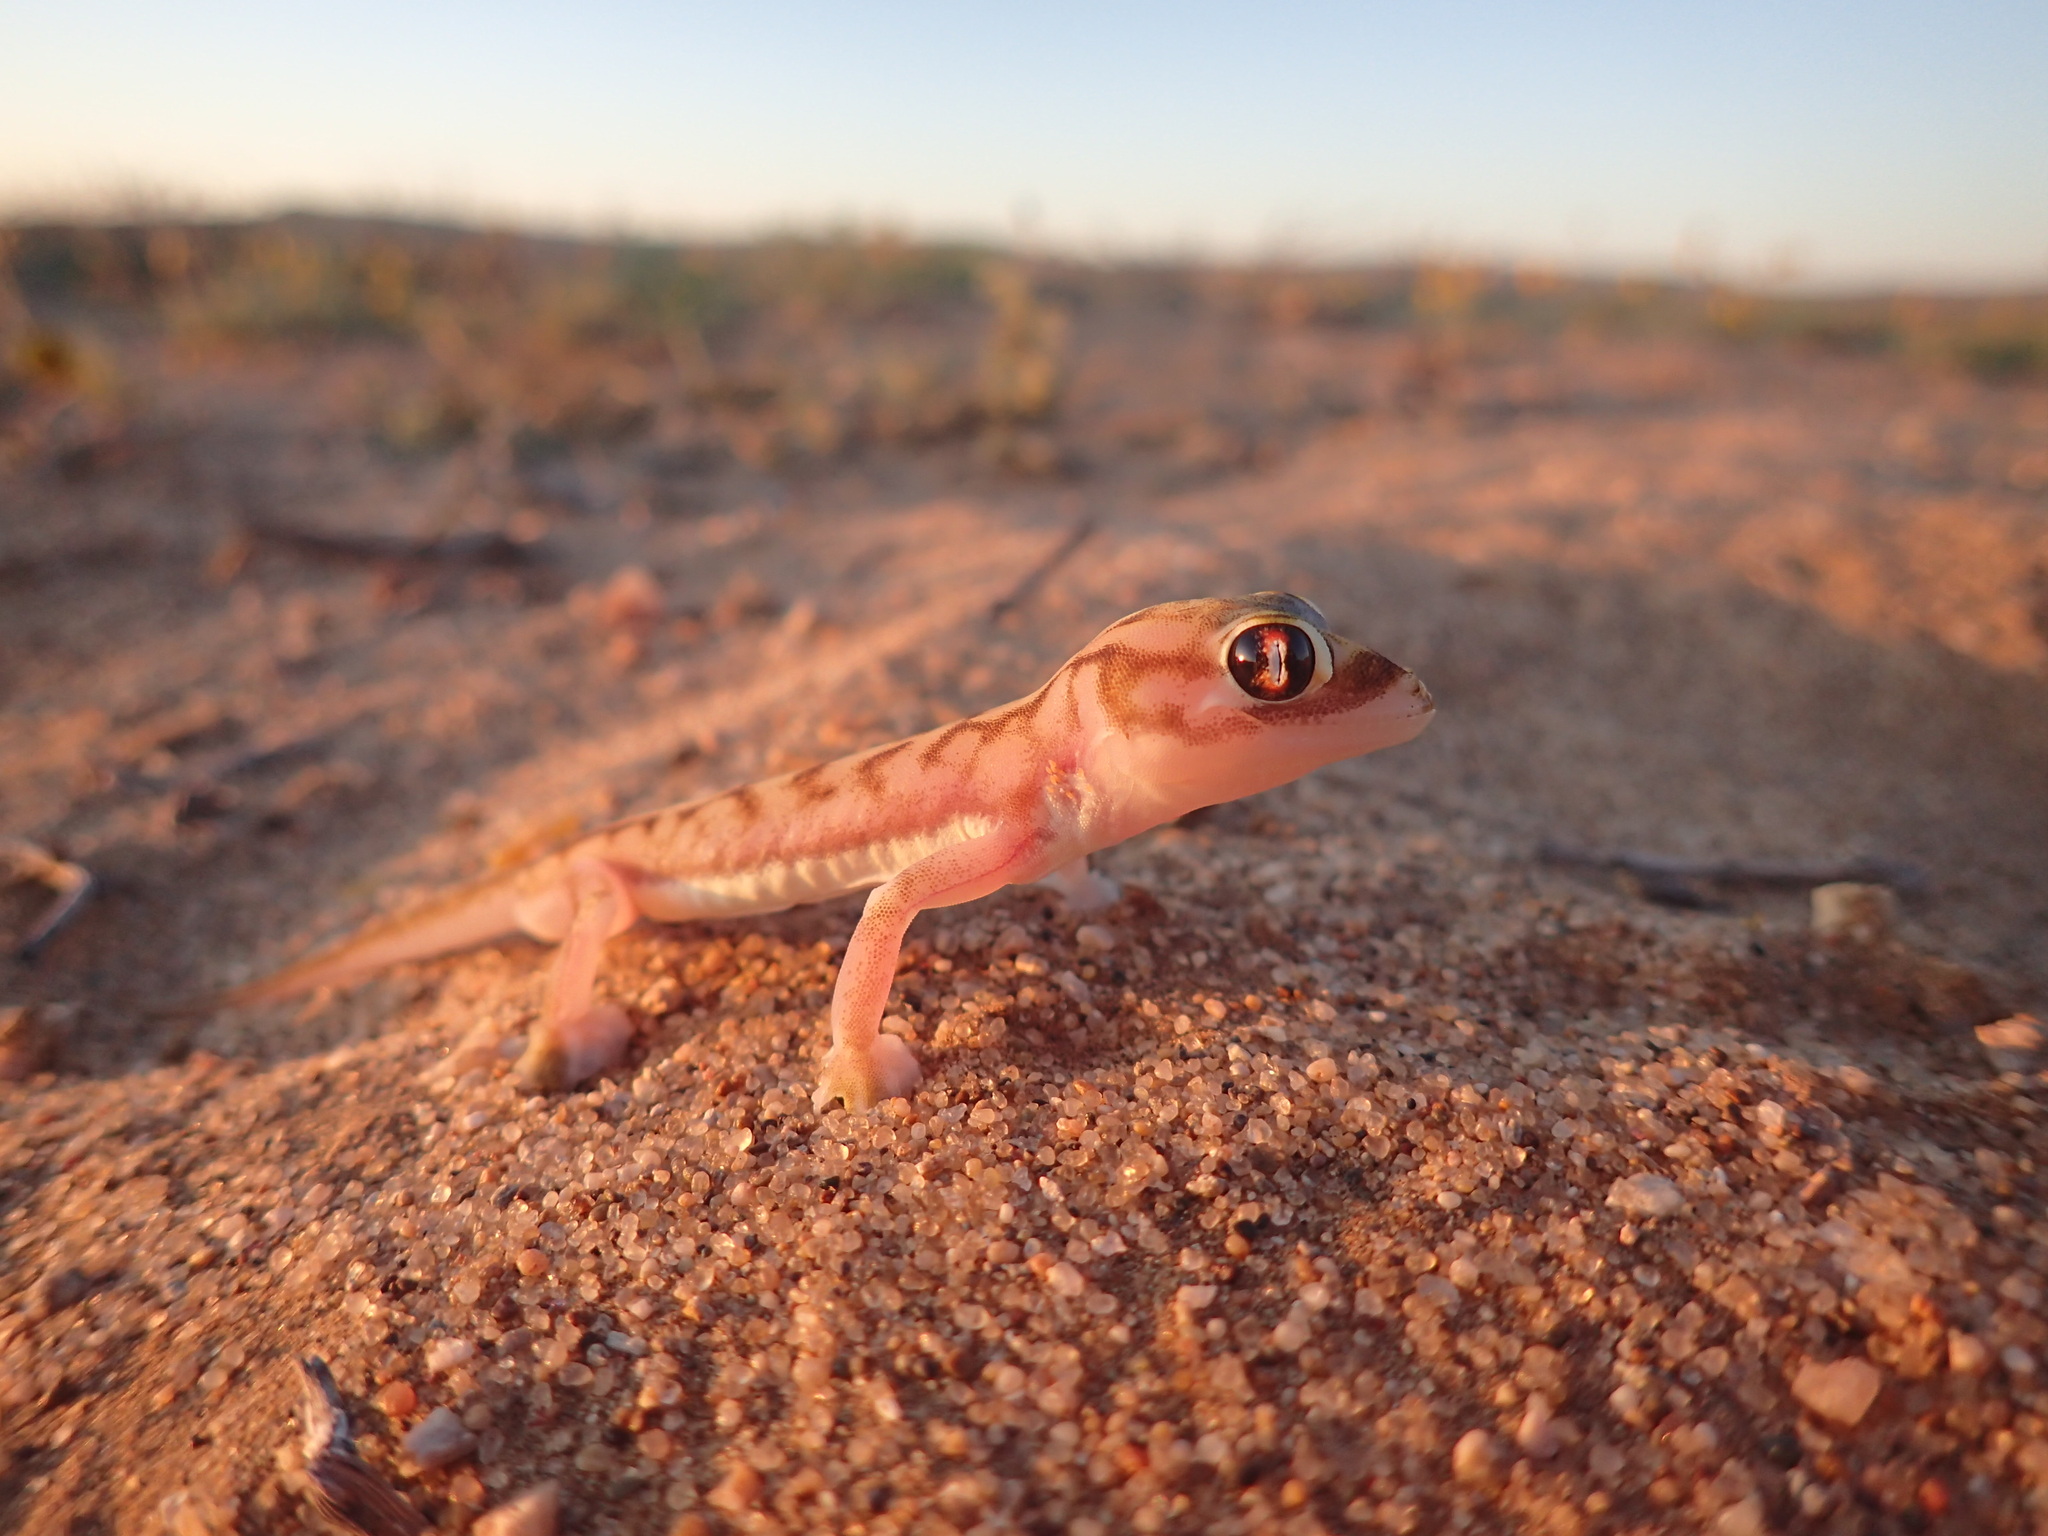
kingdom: Animalia
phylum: Chordata
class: Squamata
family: Gekkonidae
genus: Pachydactylus
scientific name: Pachydactylus rangei
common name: Namib sand gecko
